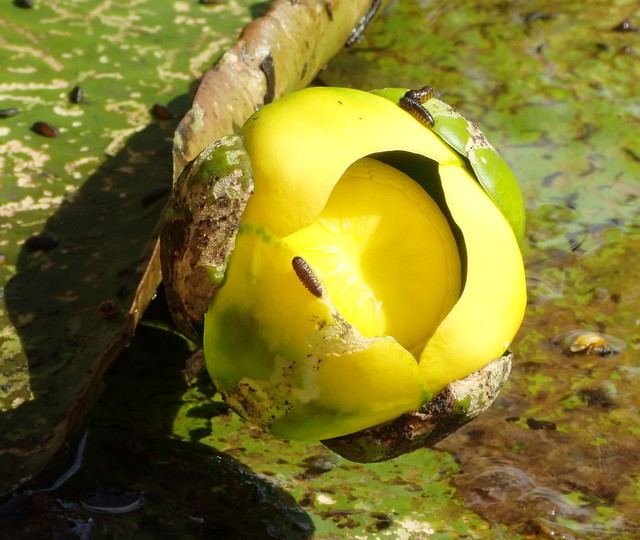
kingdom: Plantae
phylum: Tracheophyta
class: Magnoliopsida
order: Nymphaeales
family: Nymphaeaceae
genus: Nuphar
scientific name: Nuphar advena
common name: Spatter-dock
